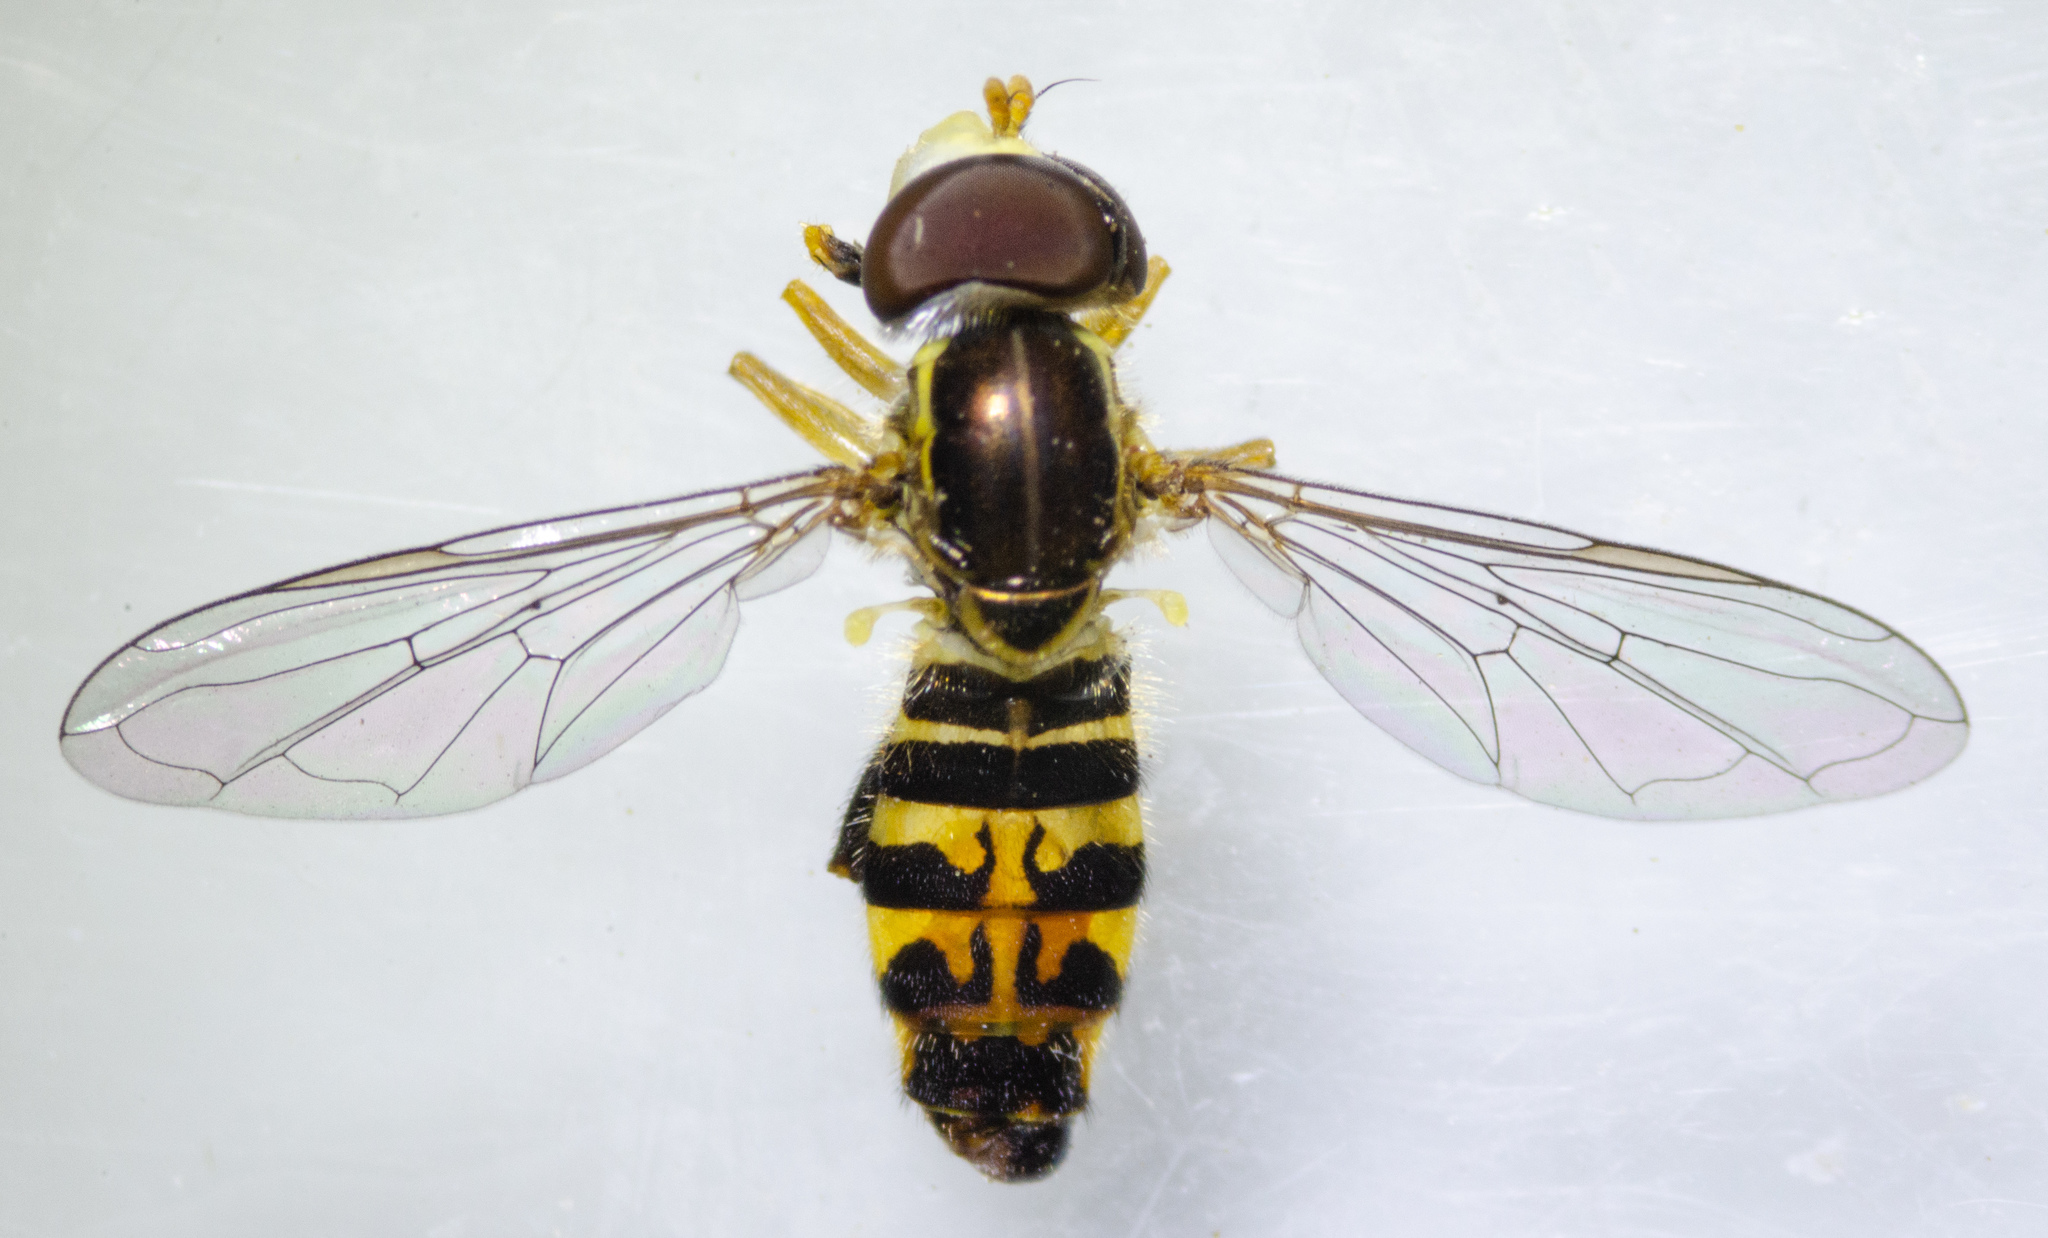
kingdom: Animalia
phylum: Arthropoda
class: Insecta
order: Diptera
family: Syrphidae
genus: Toxomerus
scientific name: Toxomerus occidentalis
